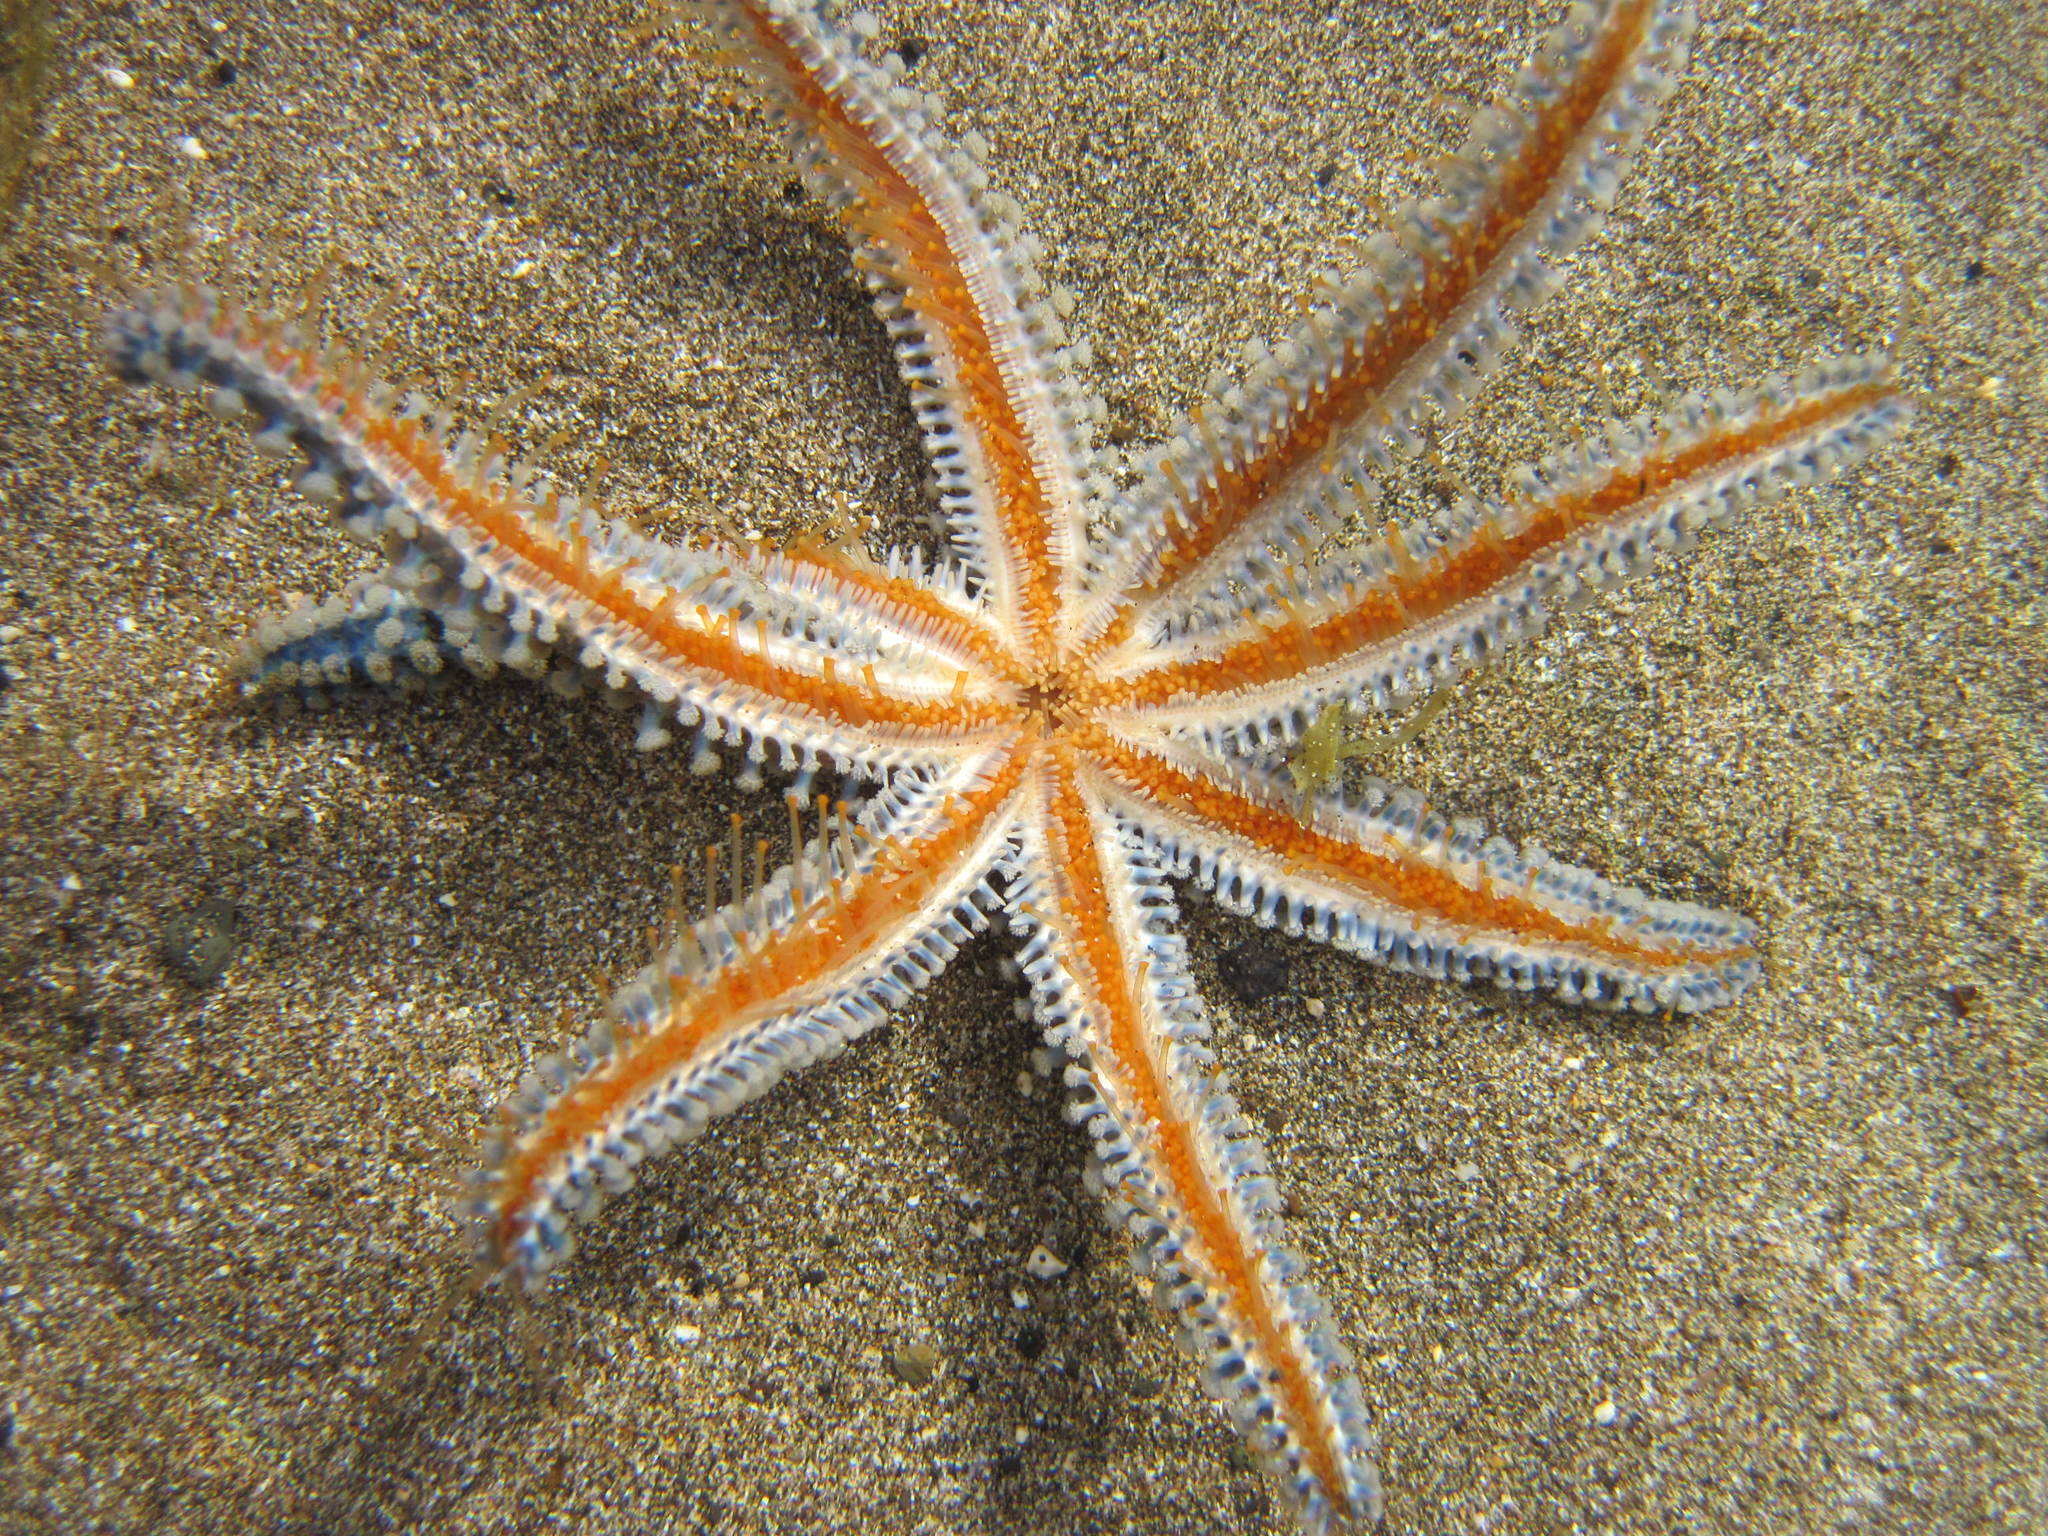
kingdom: Animalia
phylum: Echinodermata
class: Asteroidea
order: Forcipulatida
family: Asteriidae
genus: Coscinasterias
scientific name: Coscinasterias tenuispina
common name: Blue spiny starfish
